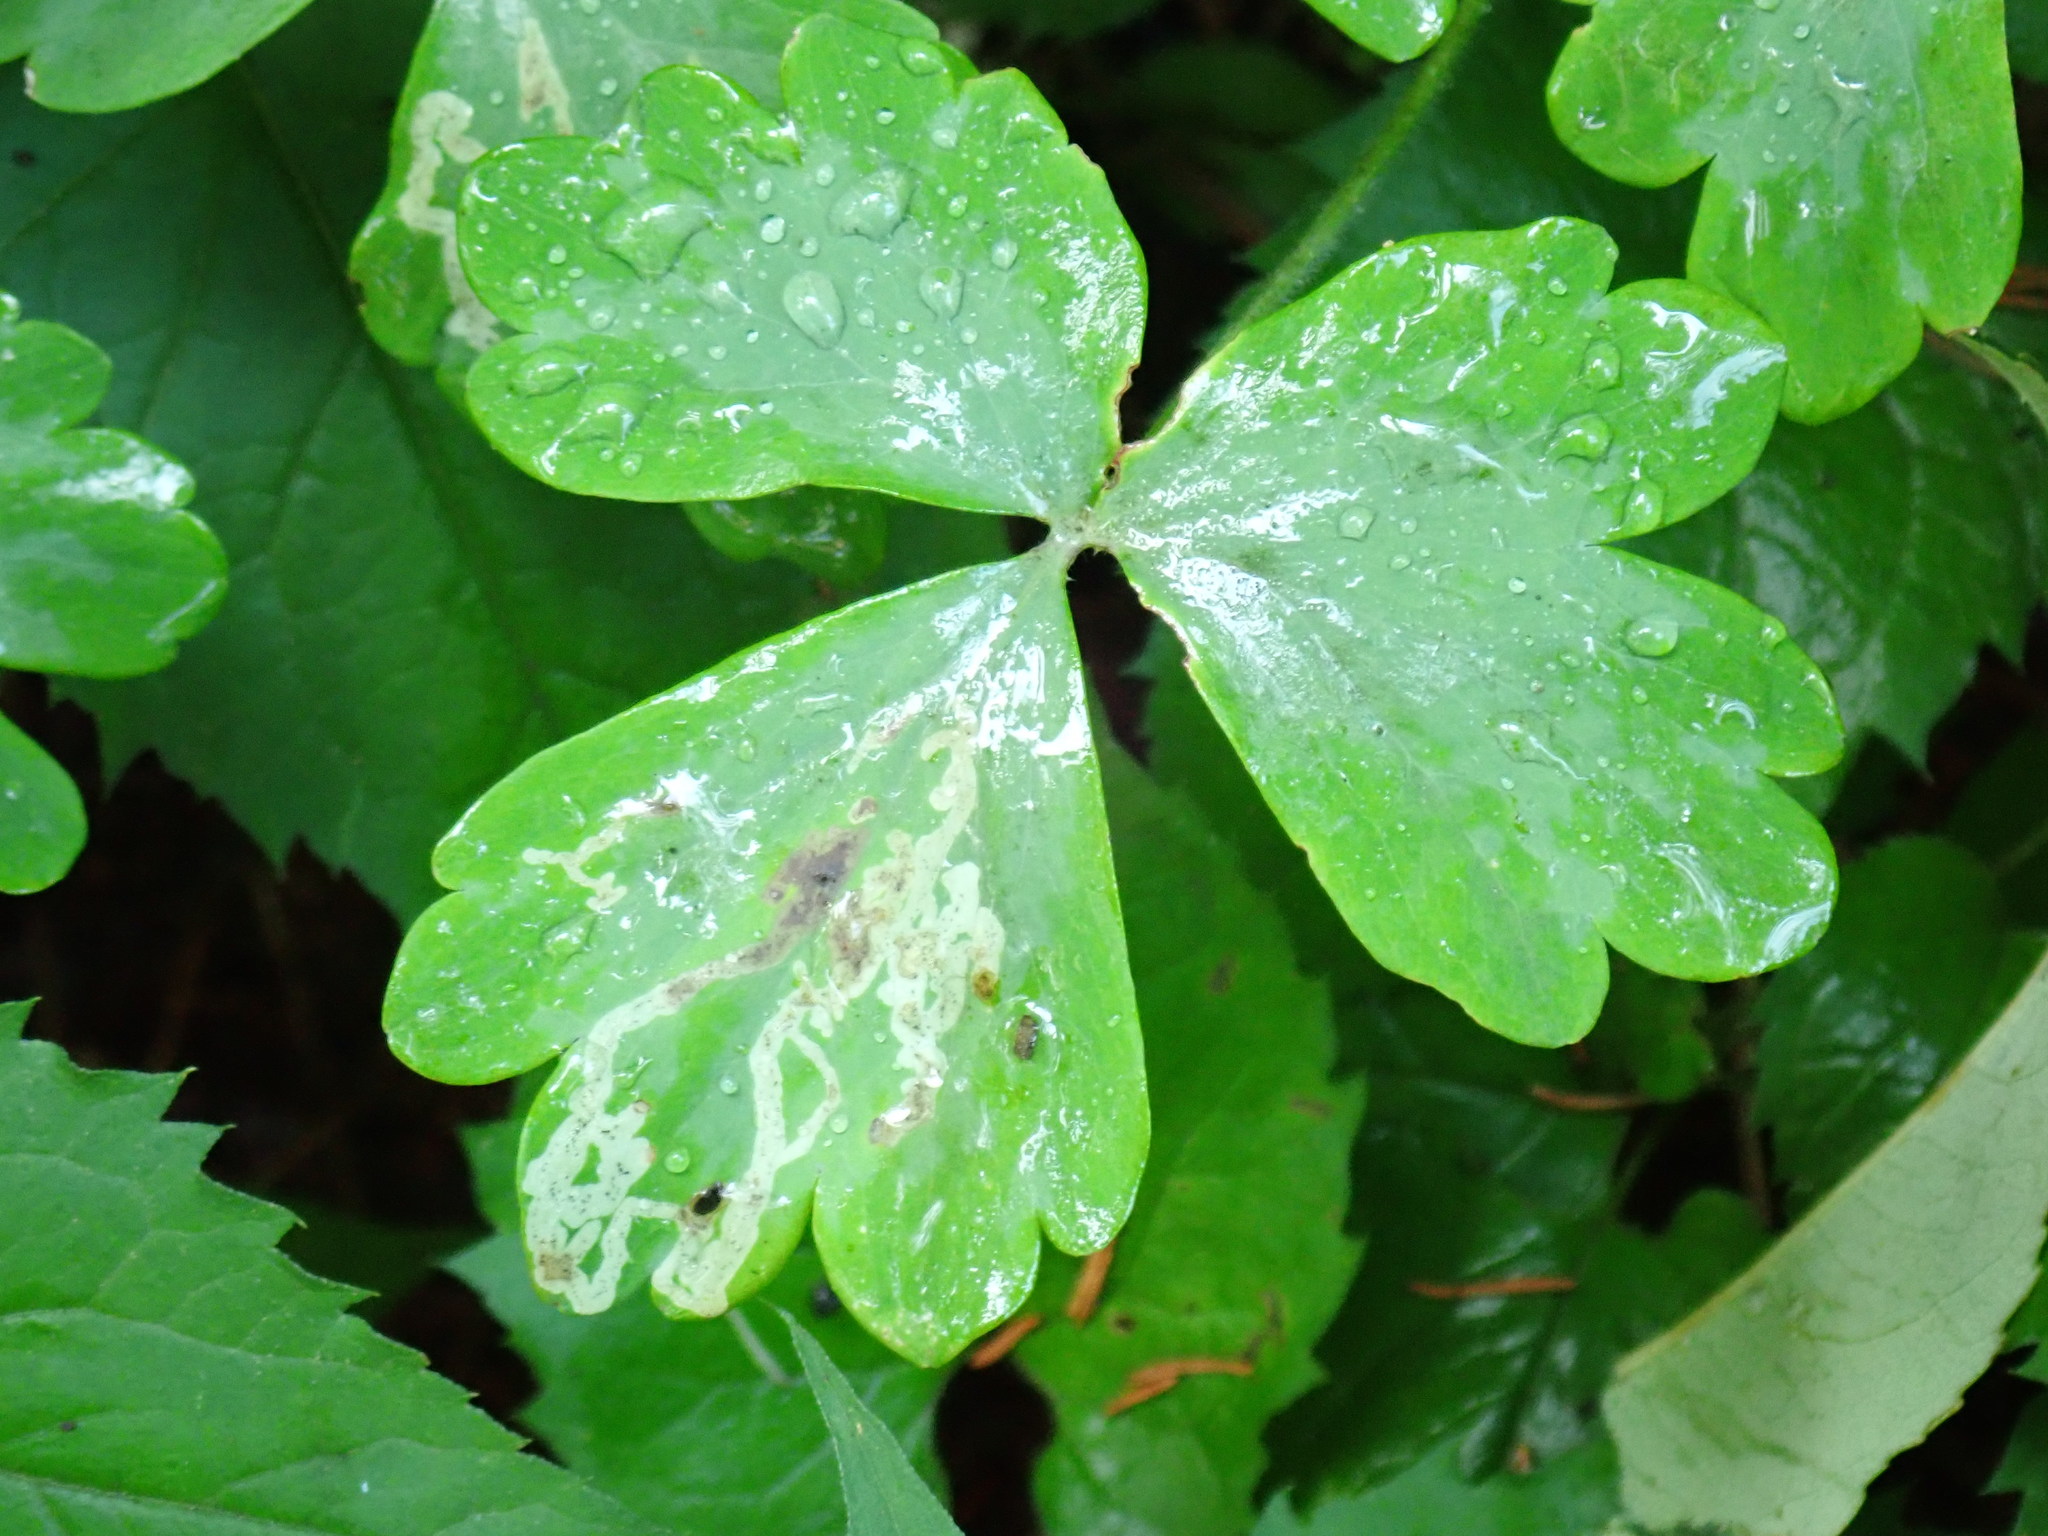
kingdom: Animalia
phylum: Arthropoda
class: Insecta
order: Diptera
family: Agromyzidae
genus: Phytomyza
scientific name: Phytomyza
